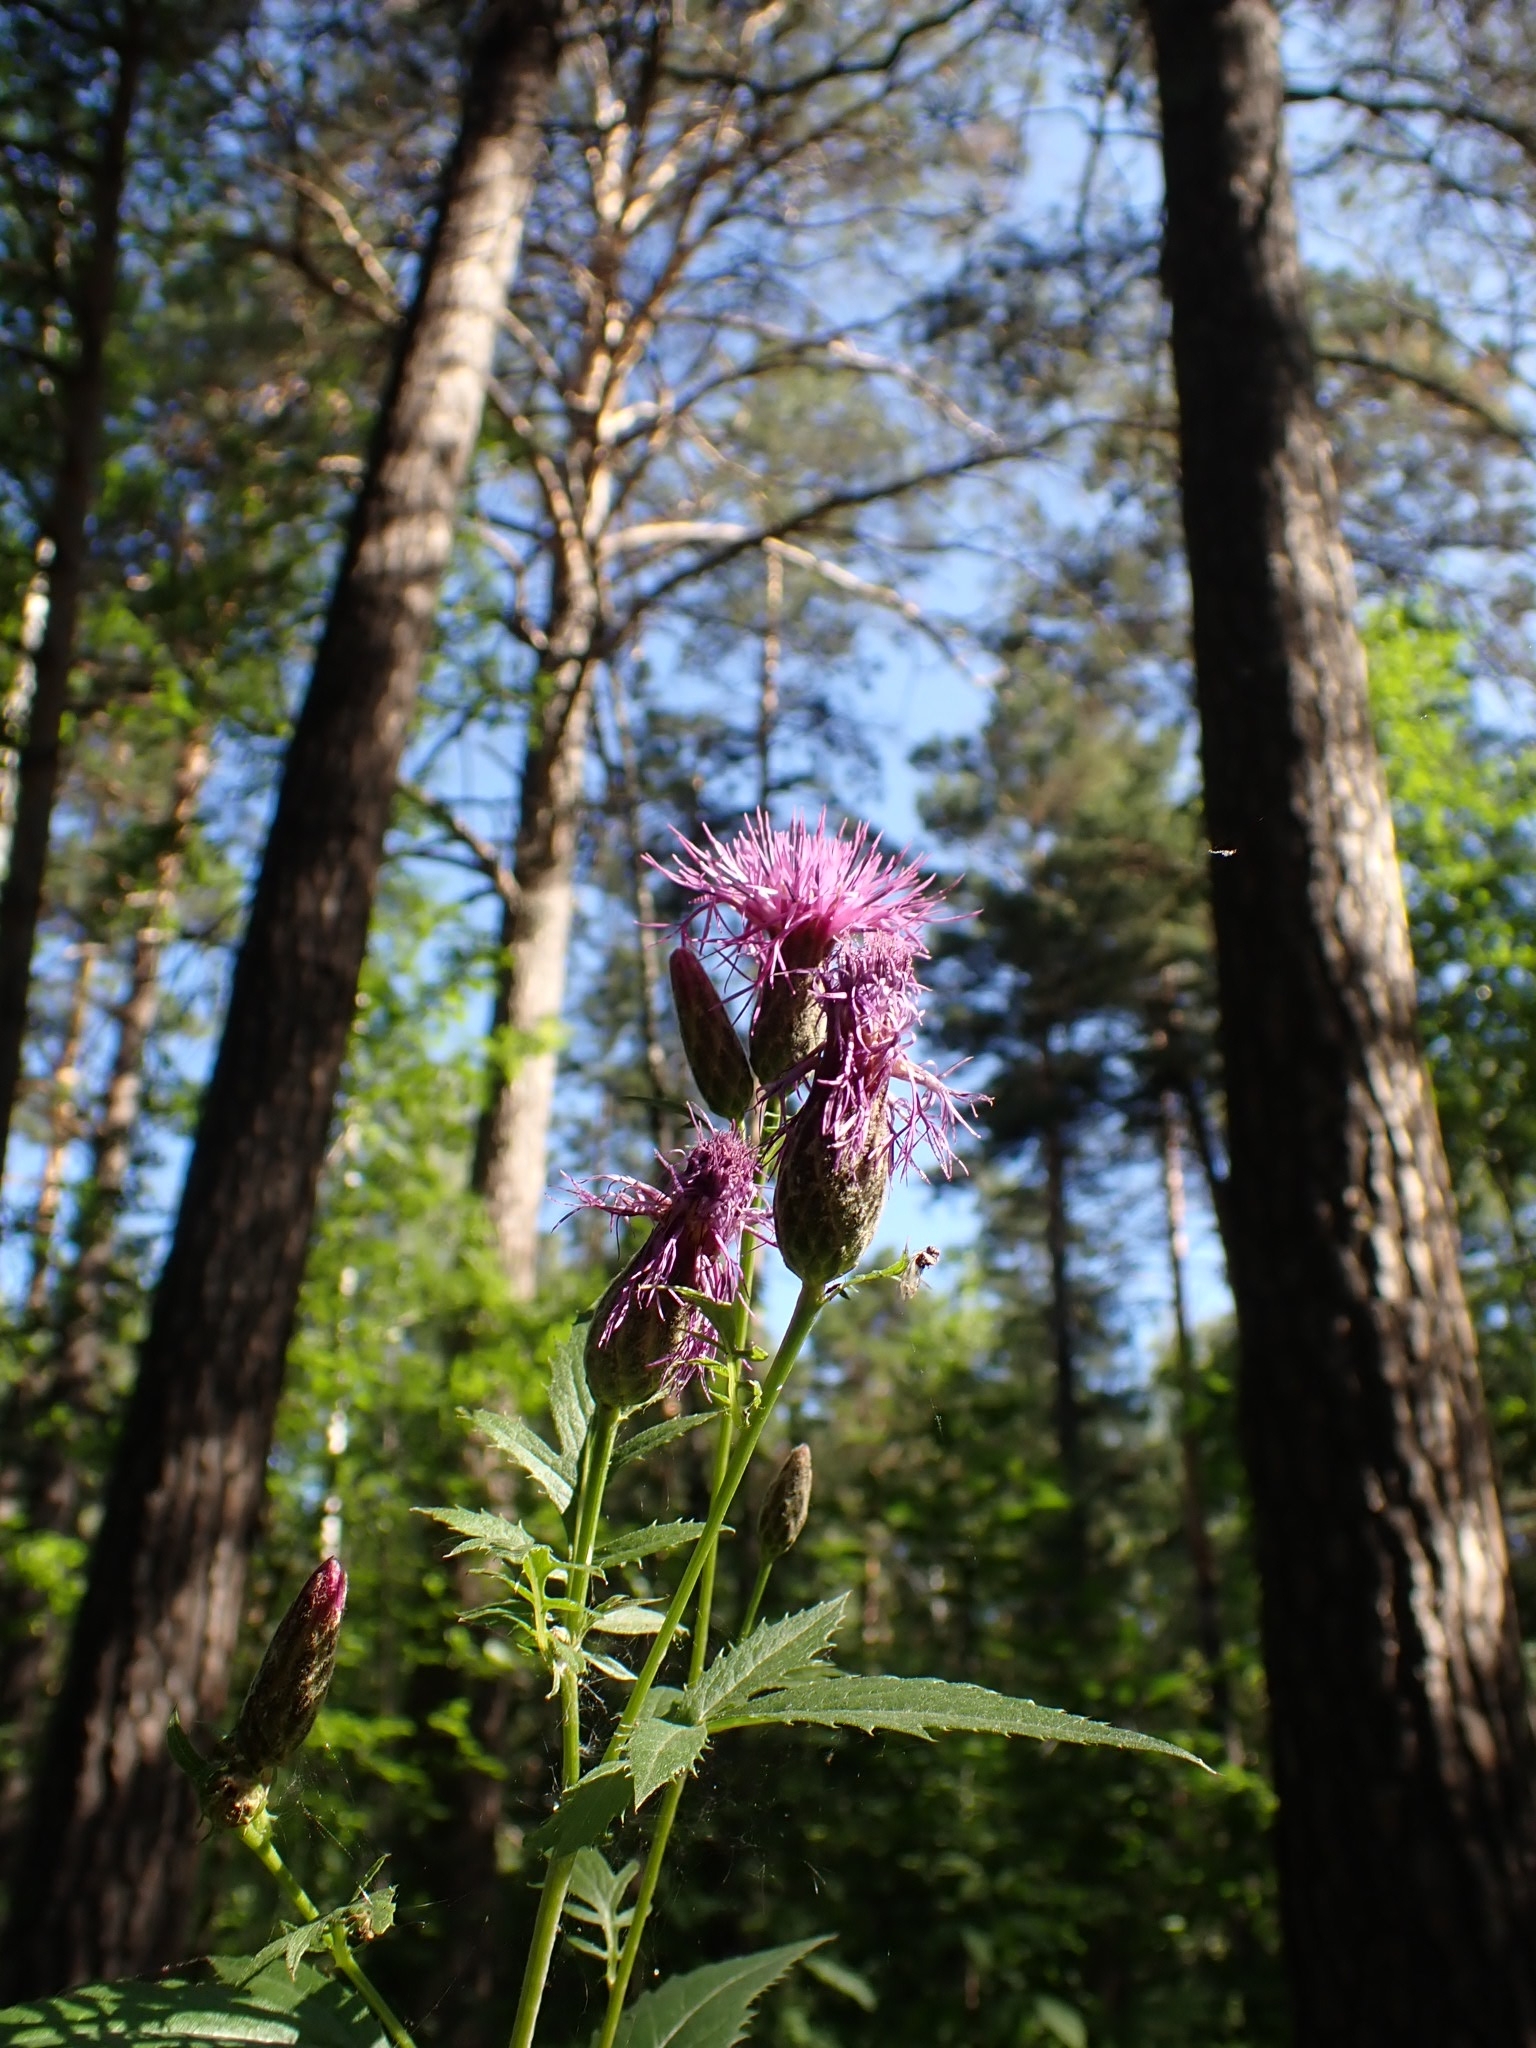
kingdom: Plantae
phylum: Tracheophyta
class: Magnoliopsida
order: Asterales
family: Asteraceae
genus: Serratula
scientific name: Serratula coronata
